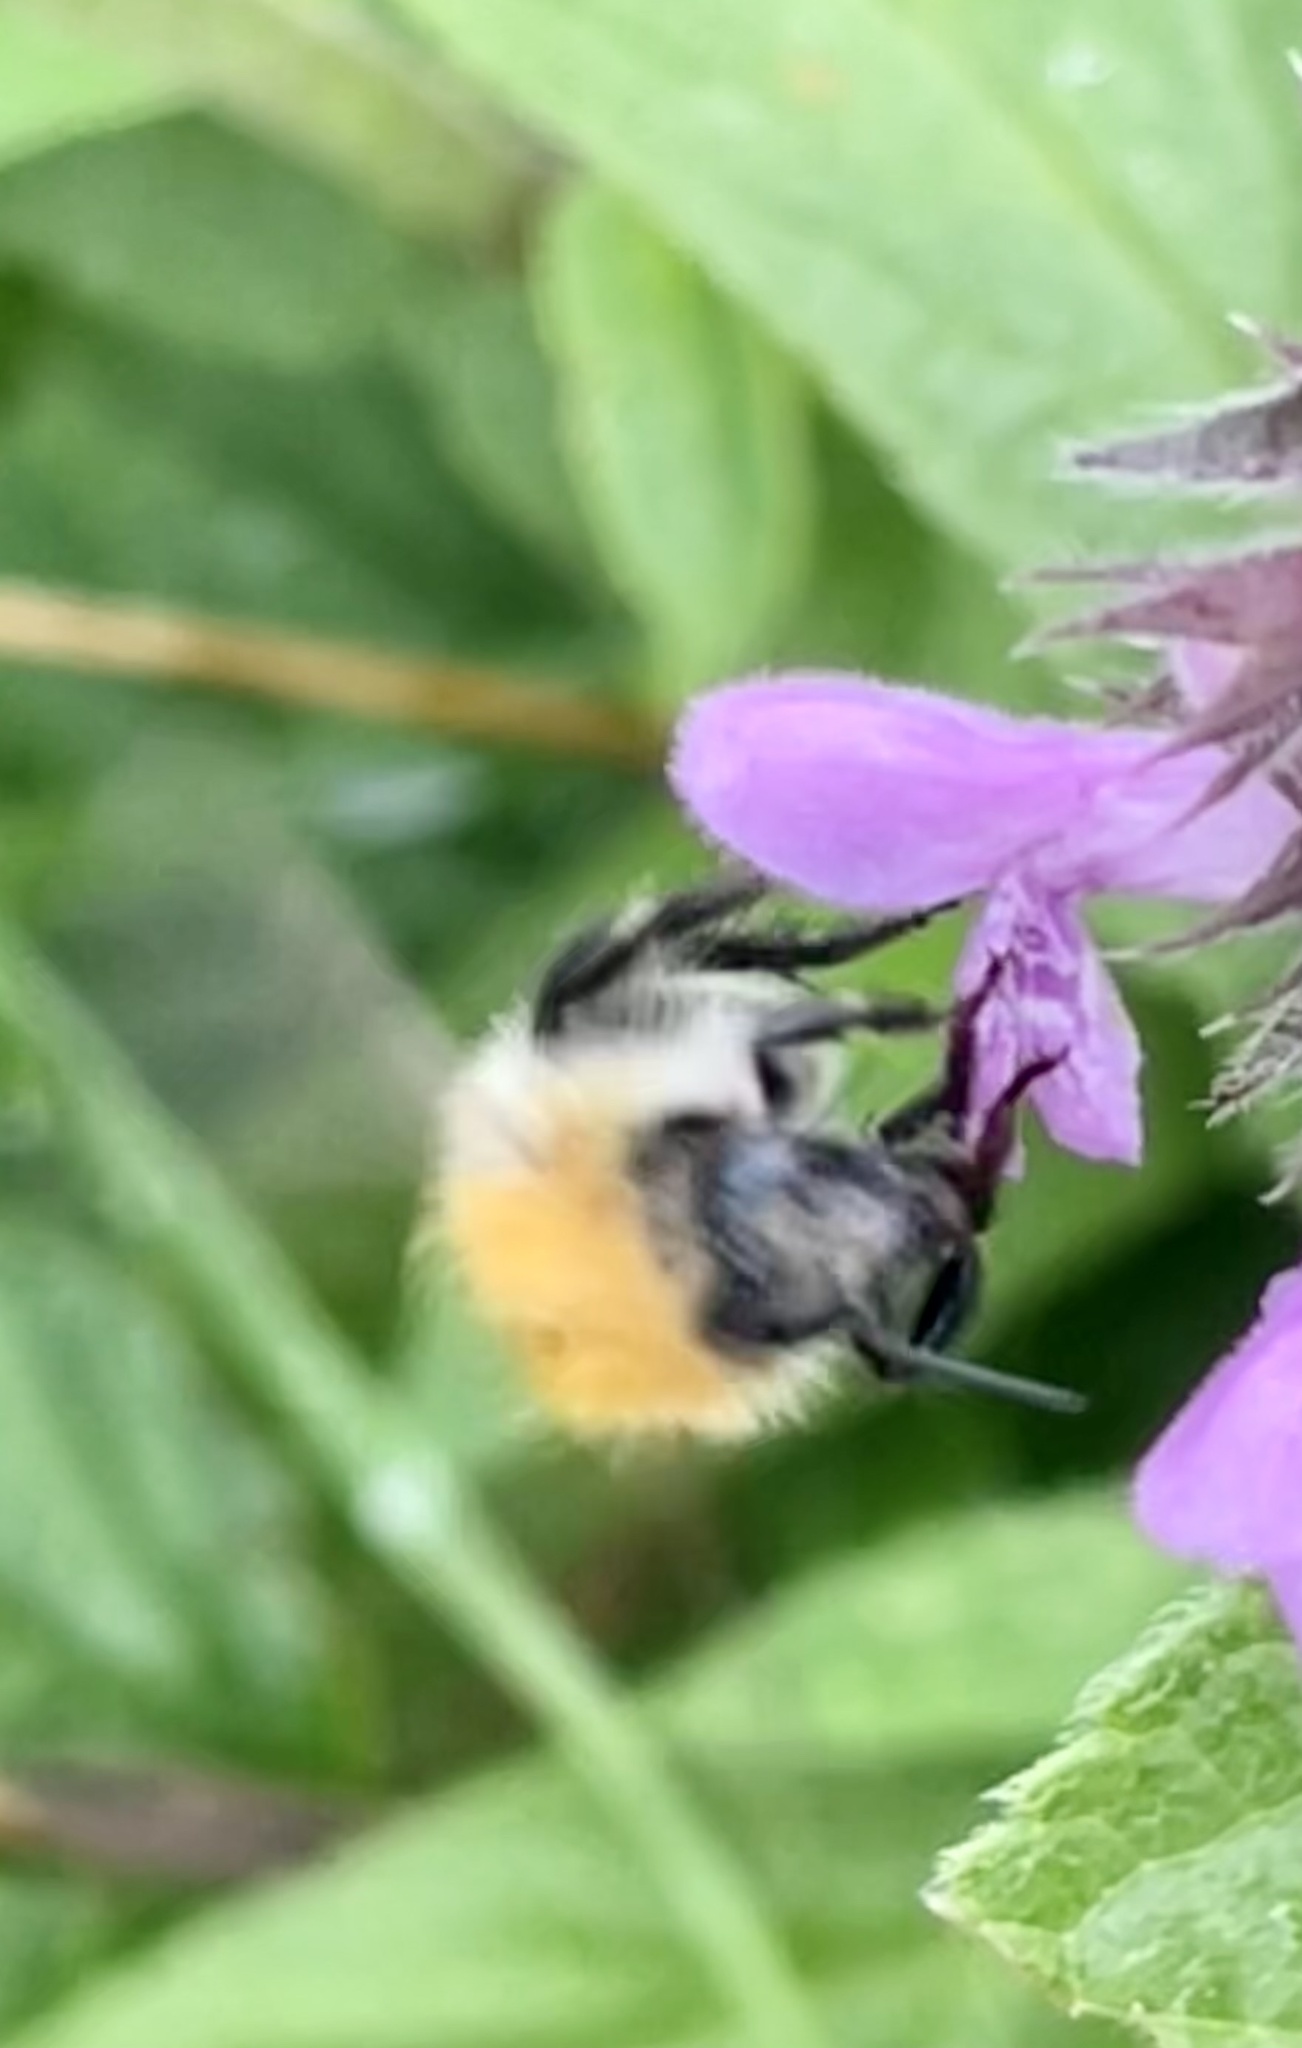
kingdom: Animalia
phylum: Arthropoda
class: Insecta
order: Hymenoptera
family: Apidae
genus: Bombus
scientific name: Bombus pascuorum
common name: Common carder bee
